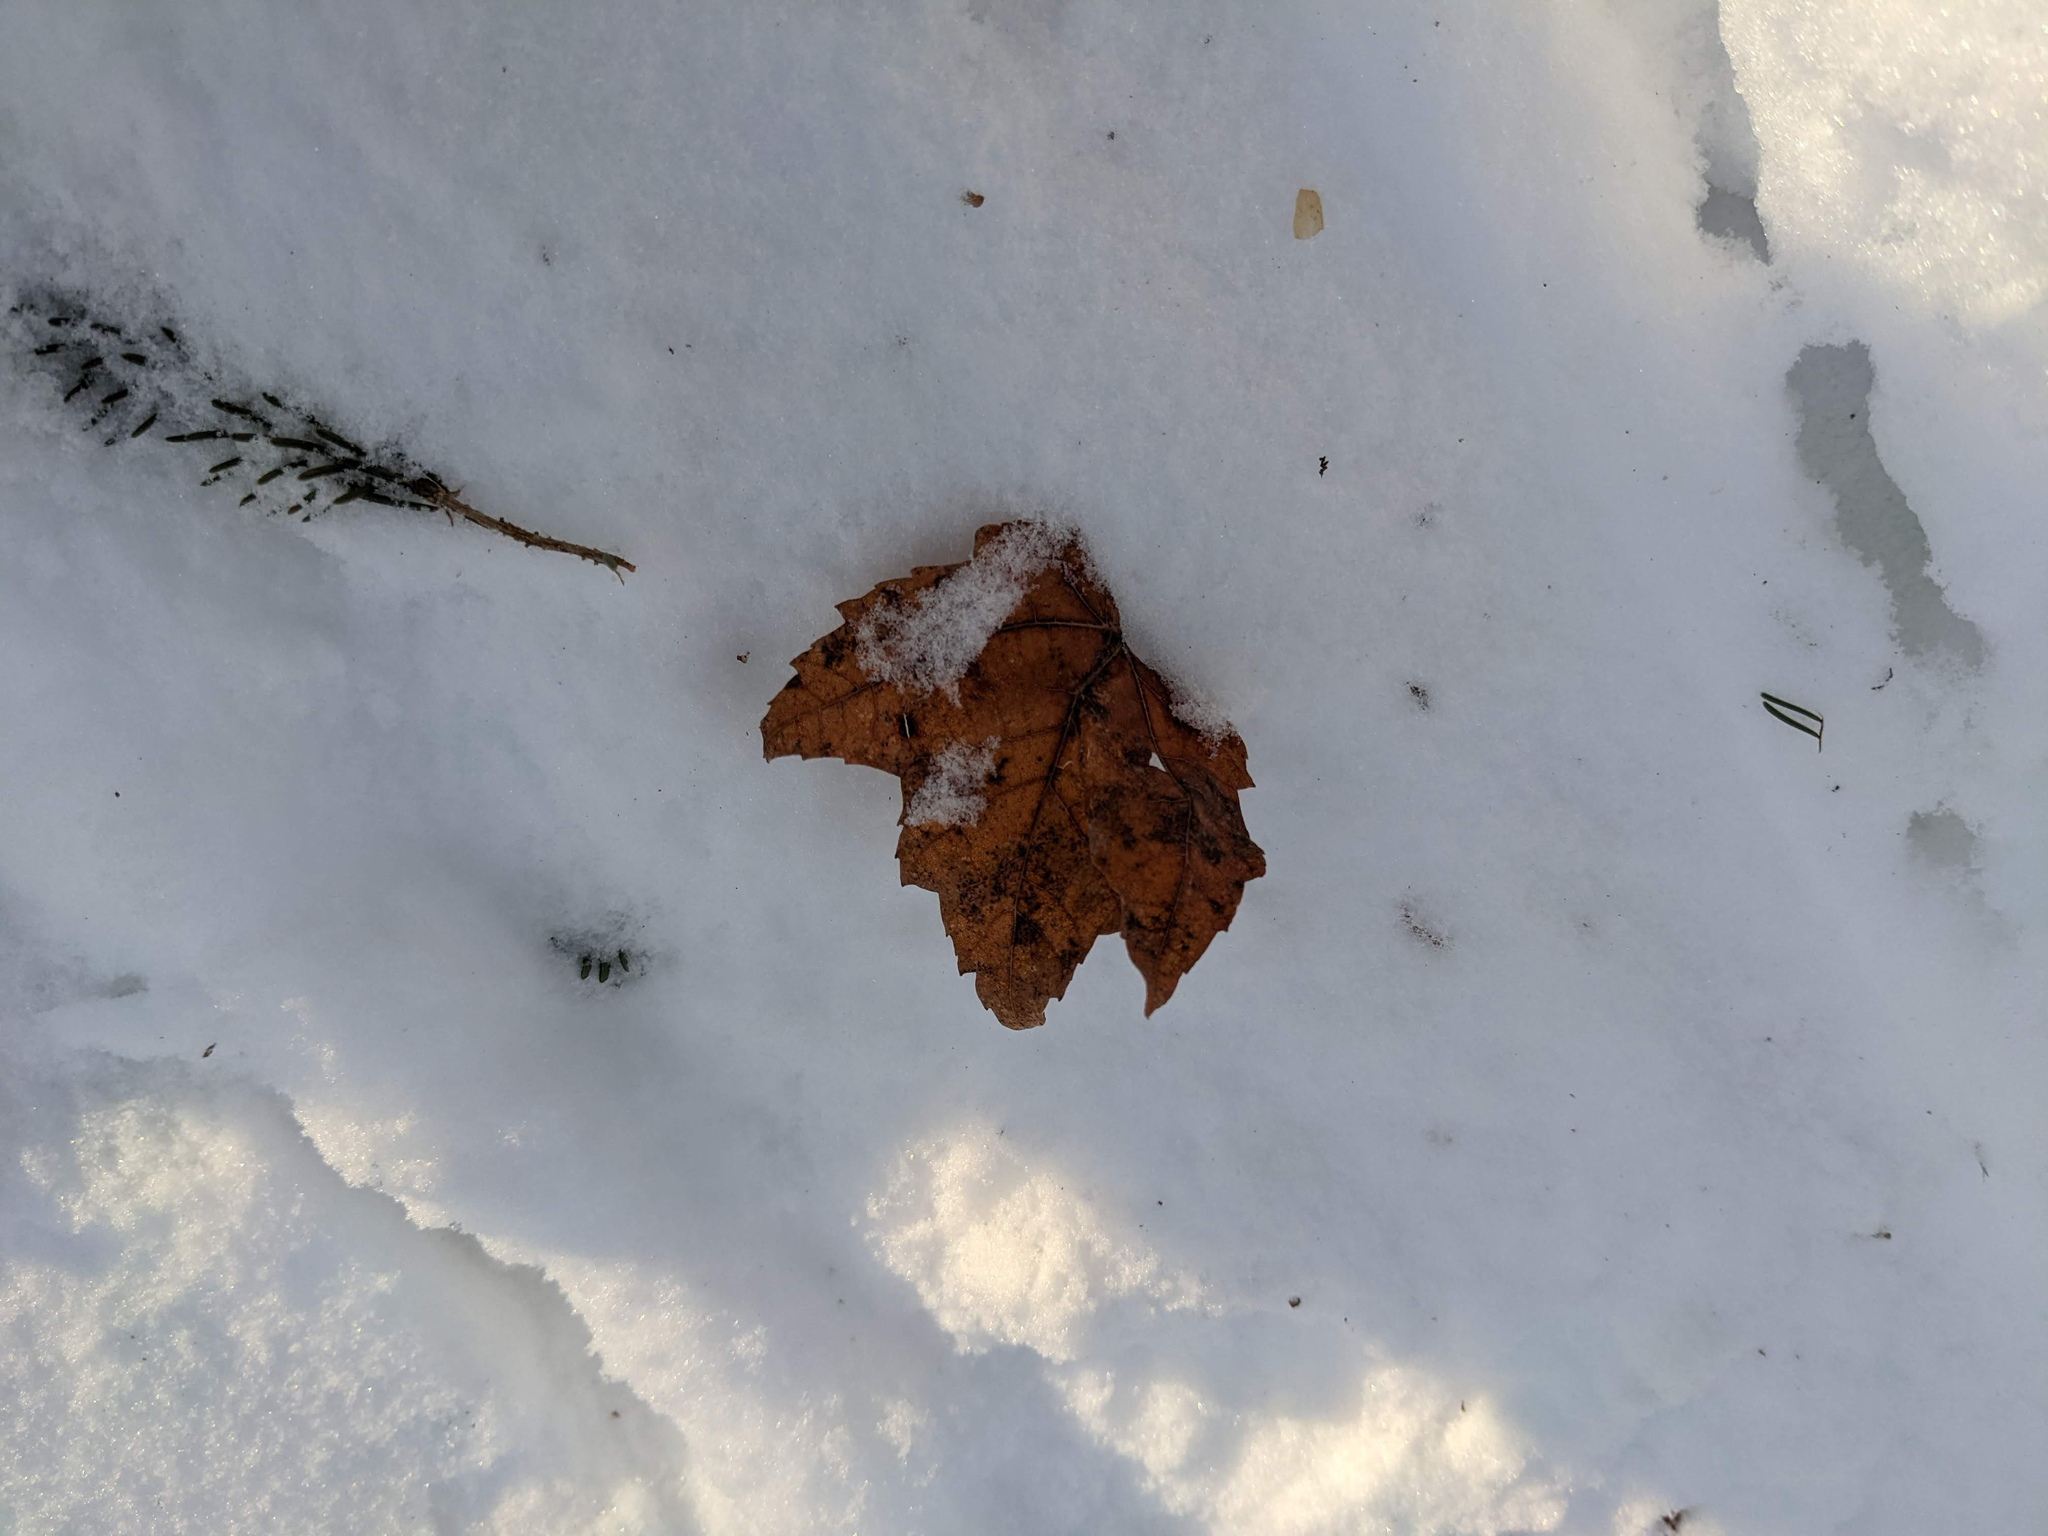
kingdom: Plantae
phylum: Tracheophyta
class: Magnoliopsida
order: Sapindales
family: Sapindaceae
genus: Acer
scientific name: Acer rubrum
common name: Red maple
